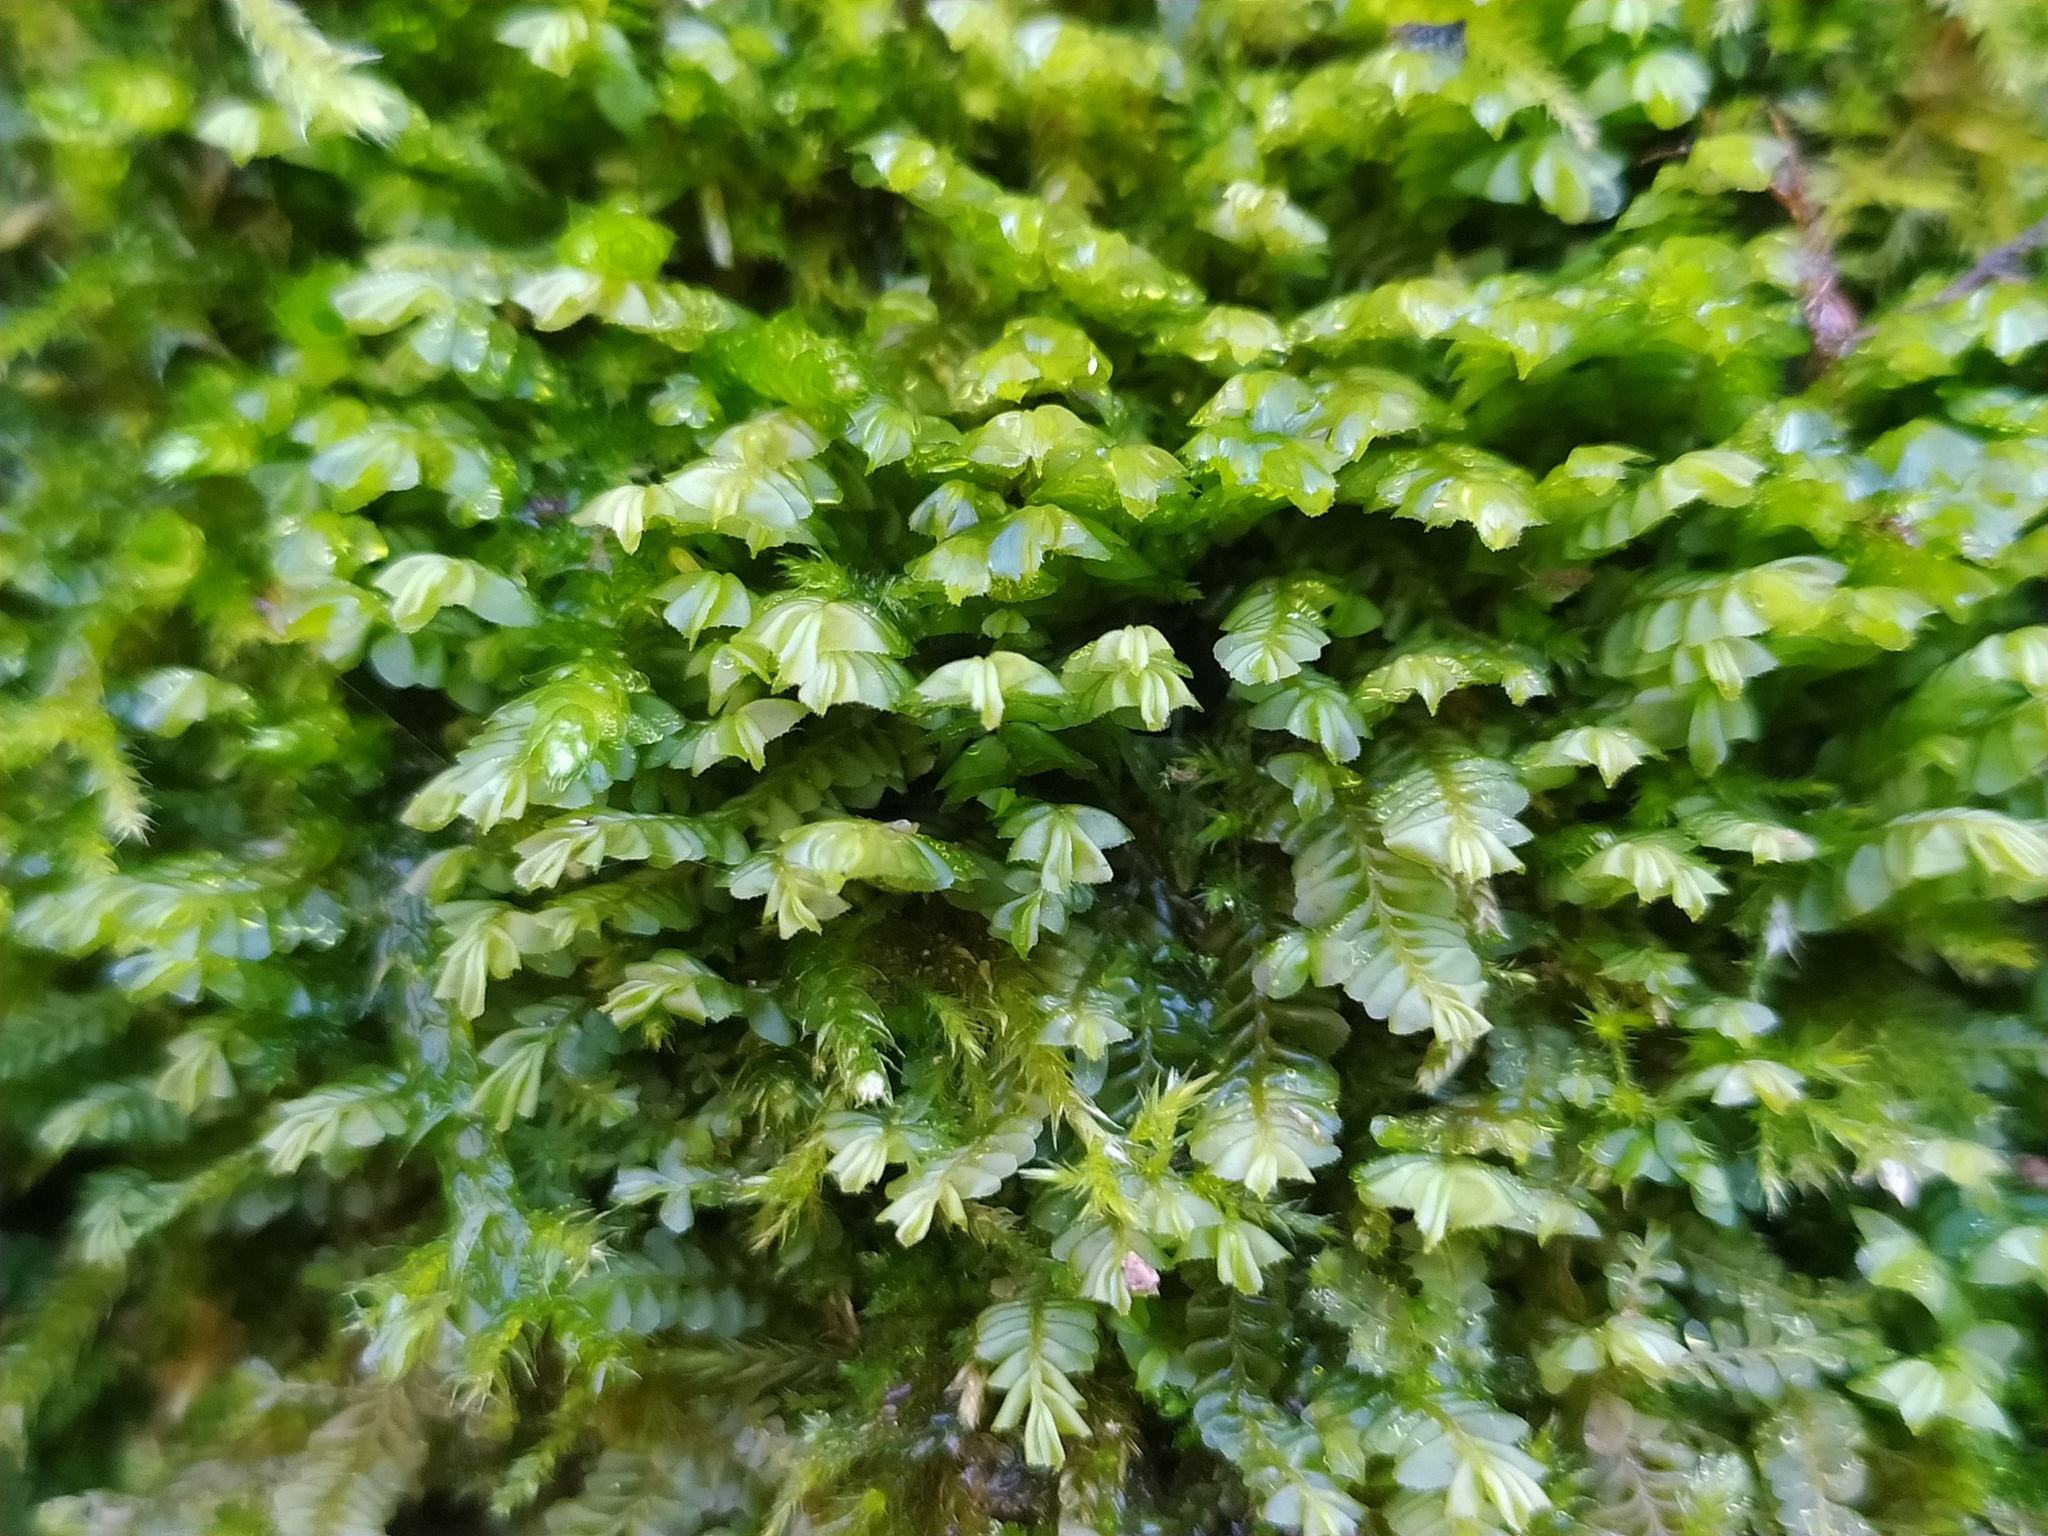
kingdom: Plantae
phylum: Marchantiophyta
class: Jungermanniopsida
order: Jungermanniales
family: Plagiochilaceae
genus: Plagiochila
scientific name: Plagiochila porelloides
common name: Lesser featherwort
